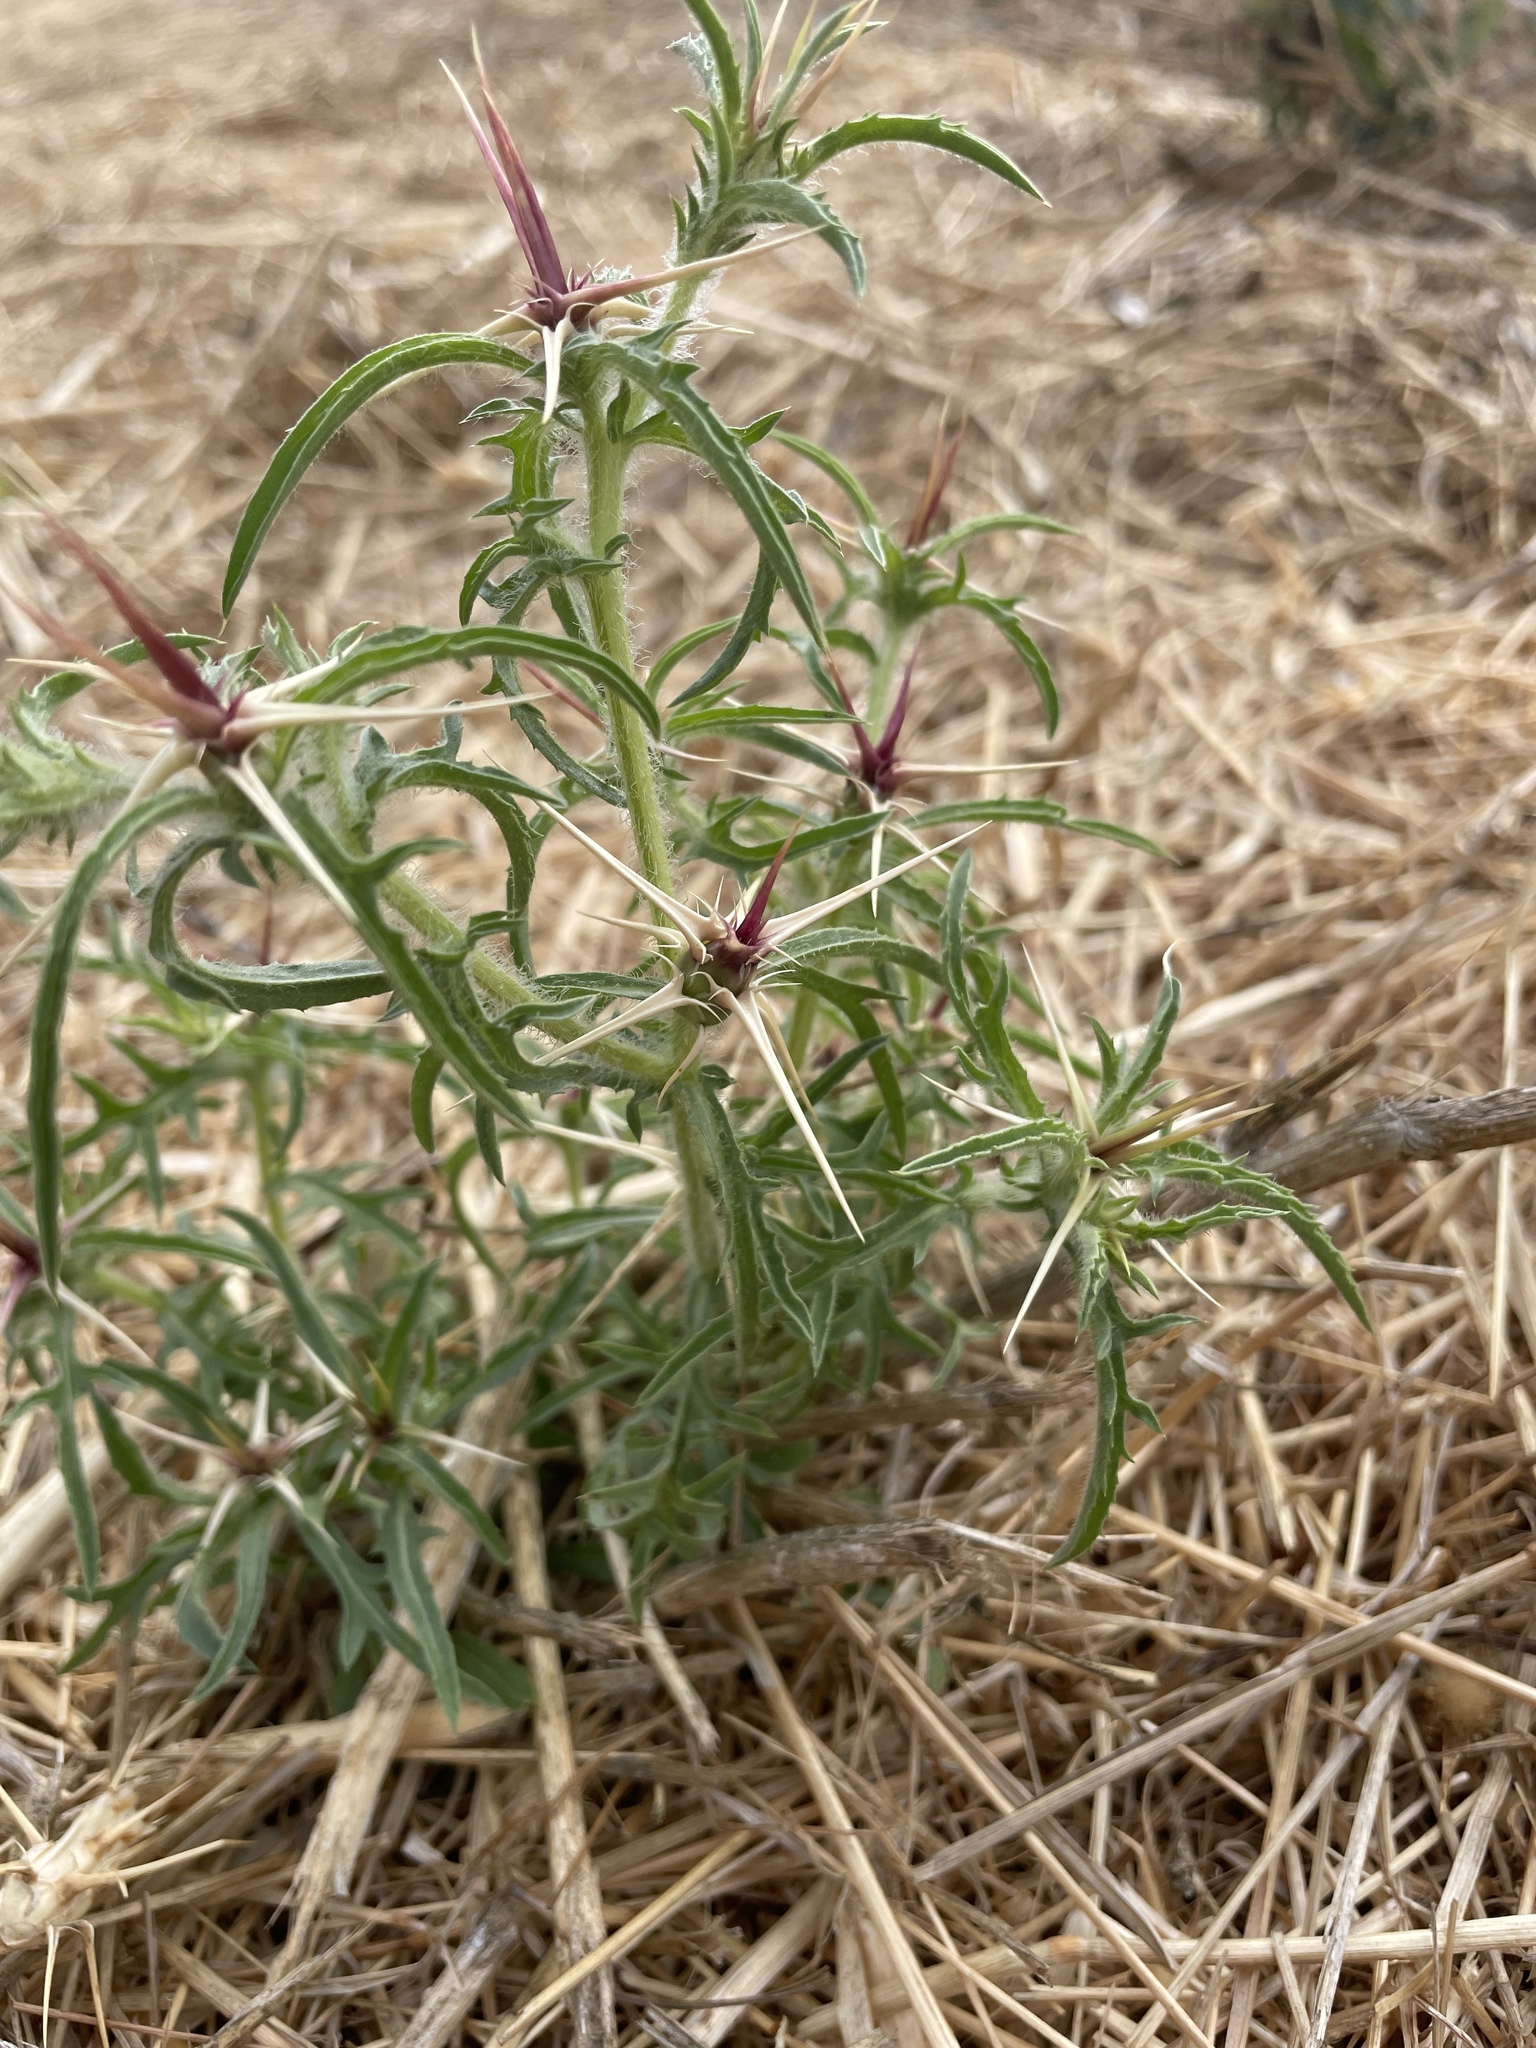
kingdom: Plantae
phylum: Tracheophyta
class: Magnoliopsida
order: Asterales
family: Asteraceae
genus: Centaurea
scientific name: Centaurea calcitrapa
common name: Red star-thistle
